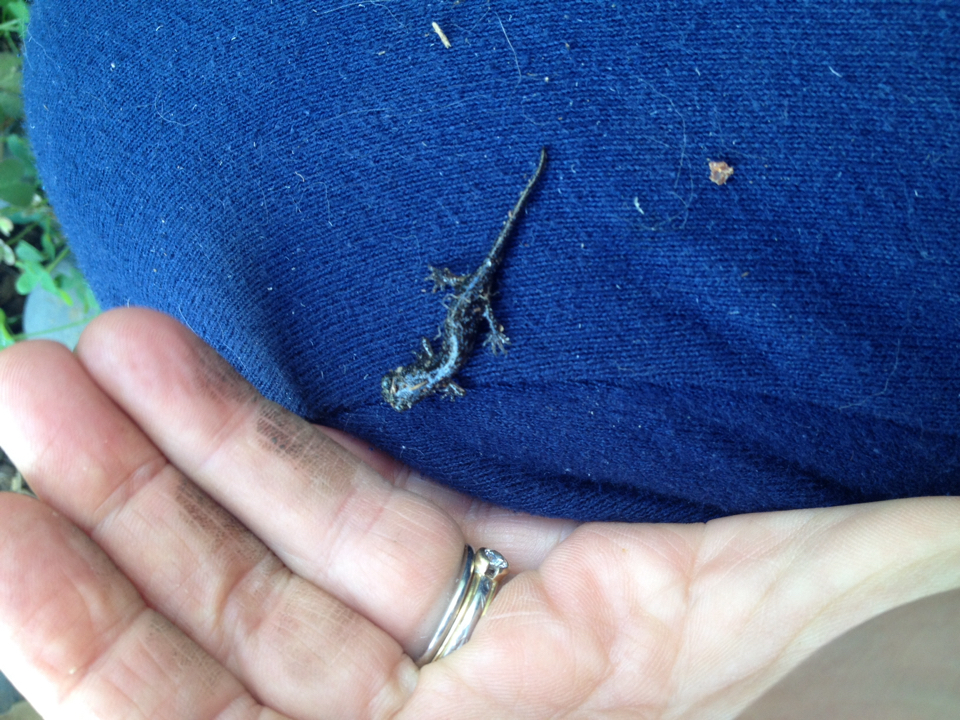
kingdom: Animalia
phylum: Chordata
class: Amphibia
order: Caudata
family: Plethodontidae
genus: Aneides
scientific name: Aneides lugubris
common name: Arboreal salamander
